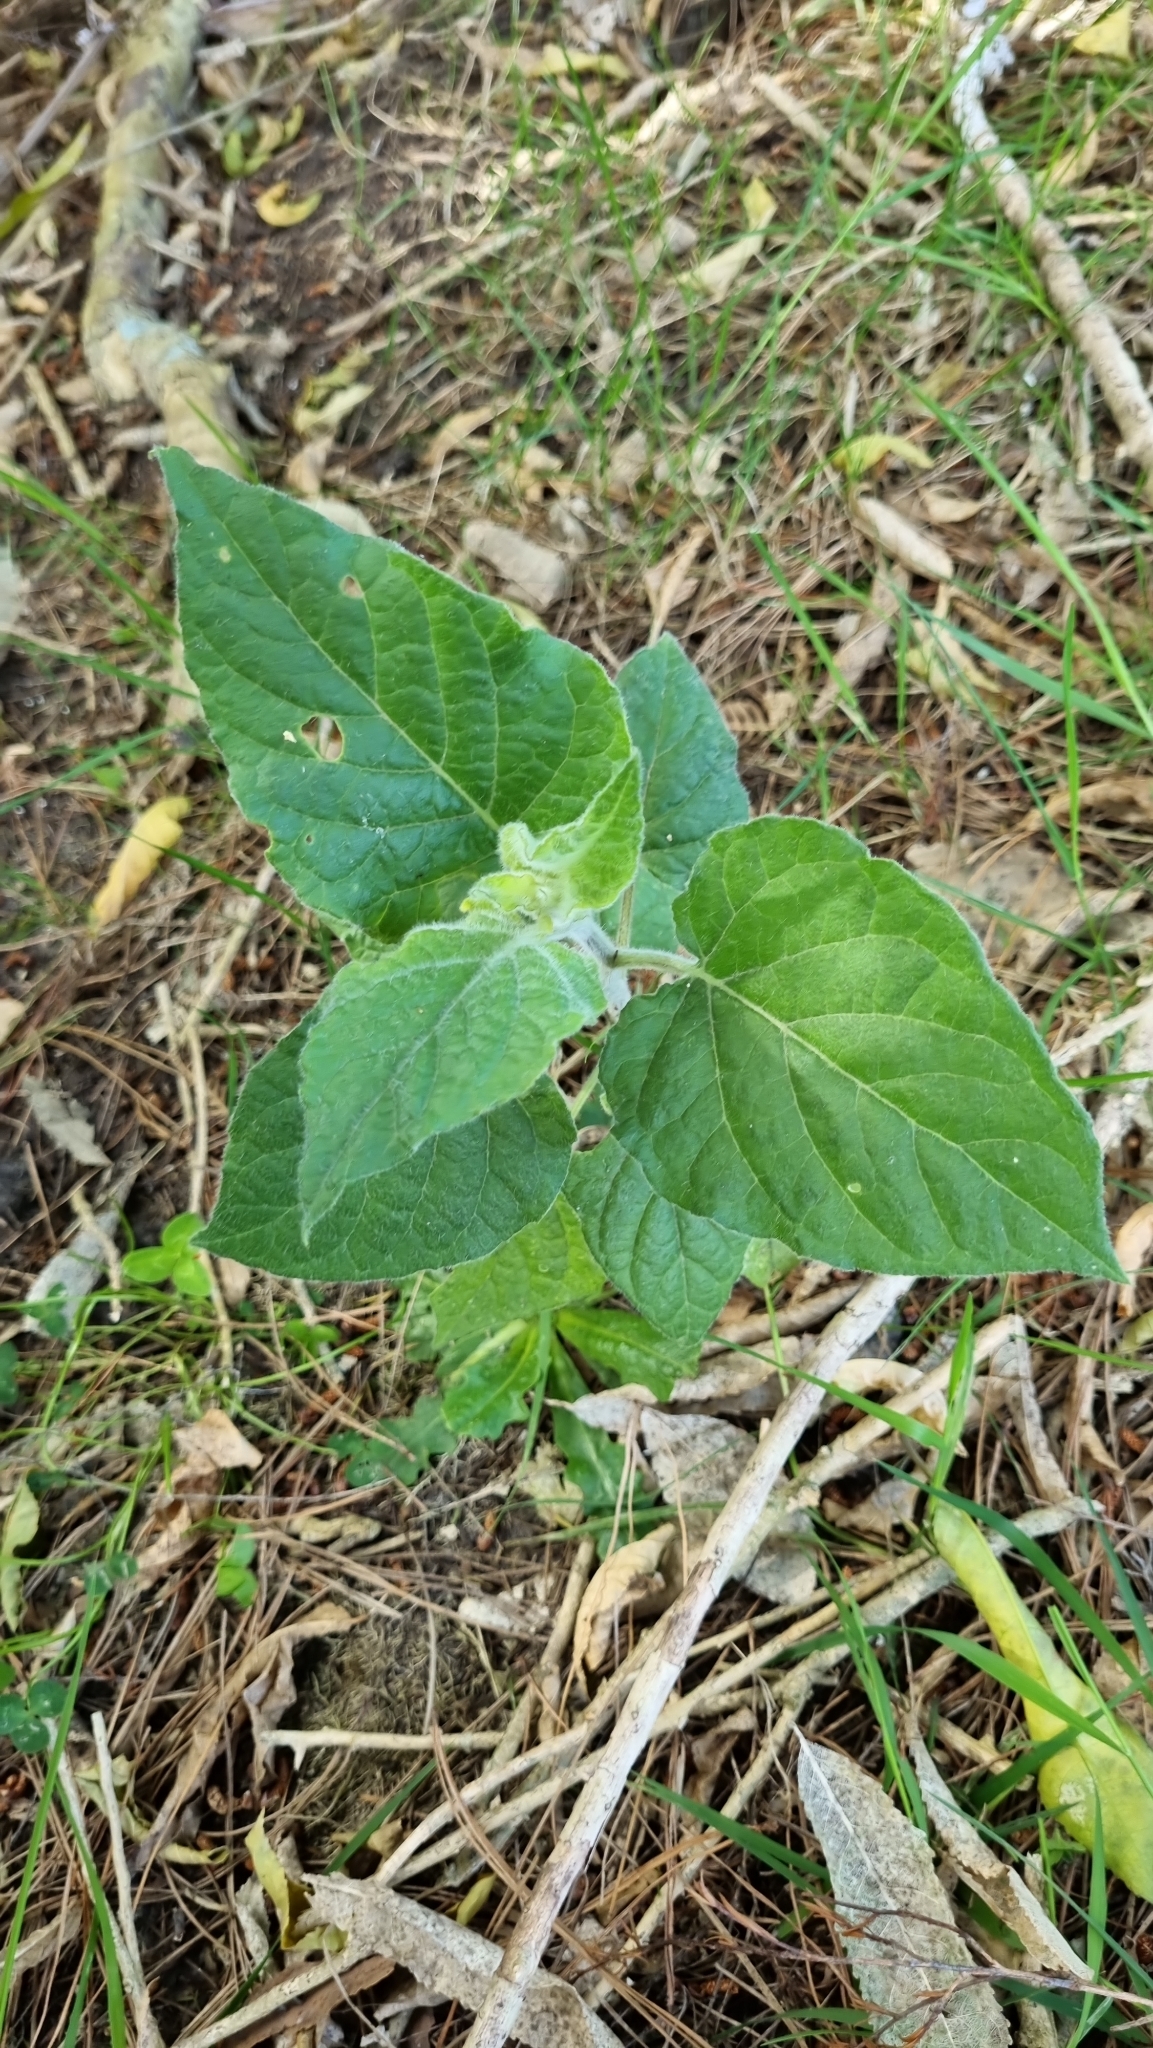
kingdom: Plantae
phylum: Tracheophyta
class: Magnoliopsida
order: Solanales
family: Solanaceae
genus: Physalis
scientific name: Physalis peruviana
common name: Cape-gooseberry
